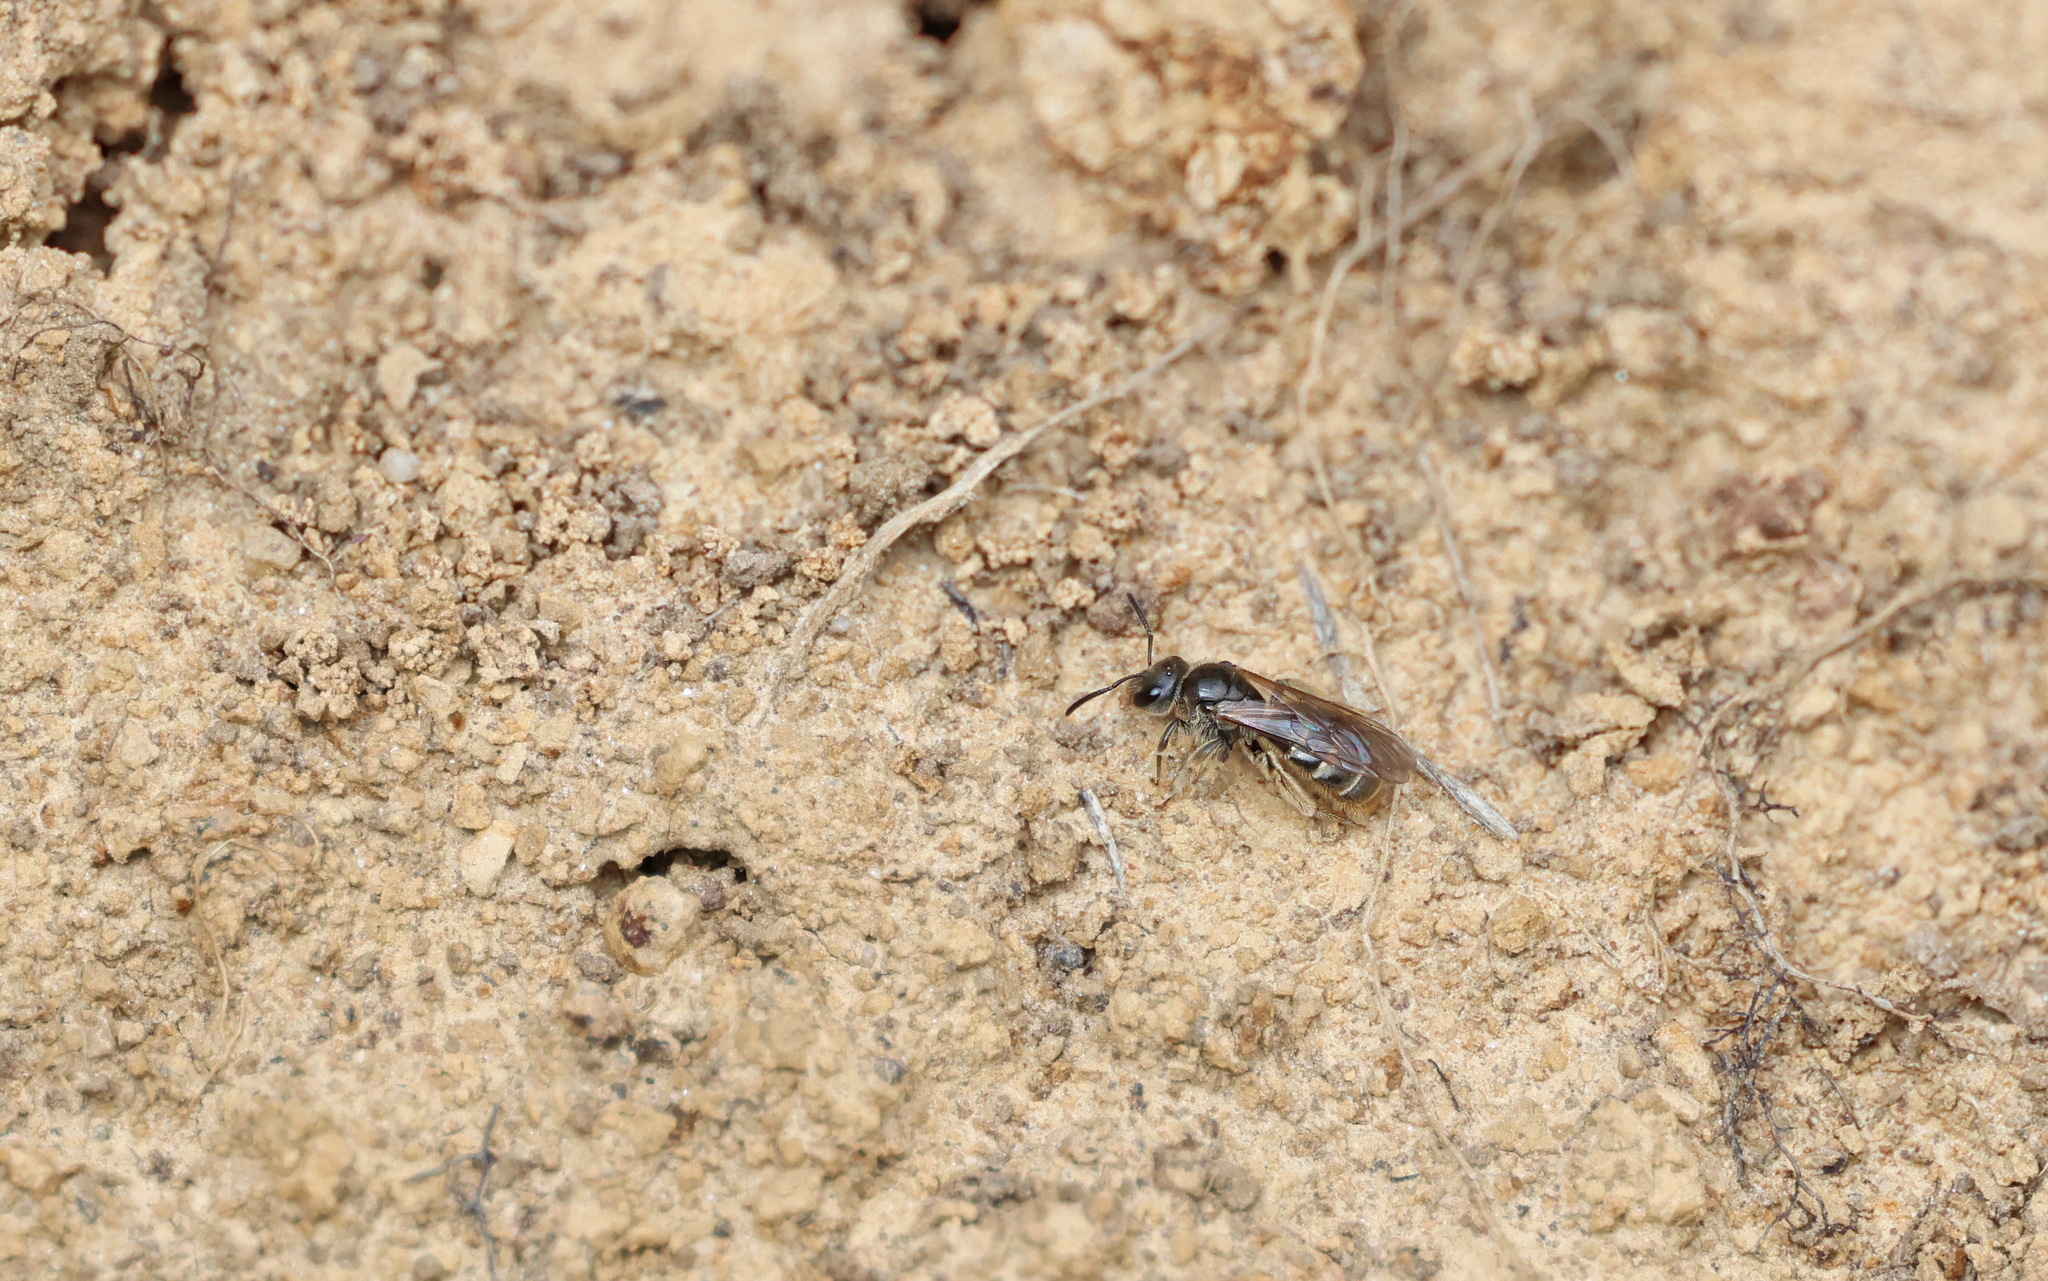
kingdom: Animalia
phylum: Arthropoda
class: Insecta
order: Hymenoptera
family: Halictidae
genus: Lasioglossum
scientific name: Lasioglossum marginatum
